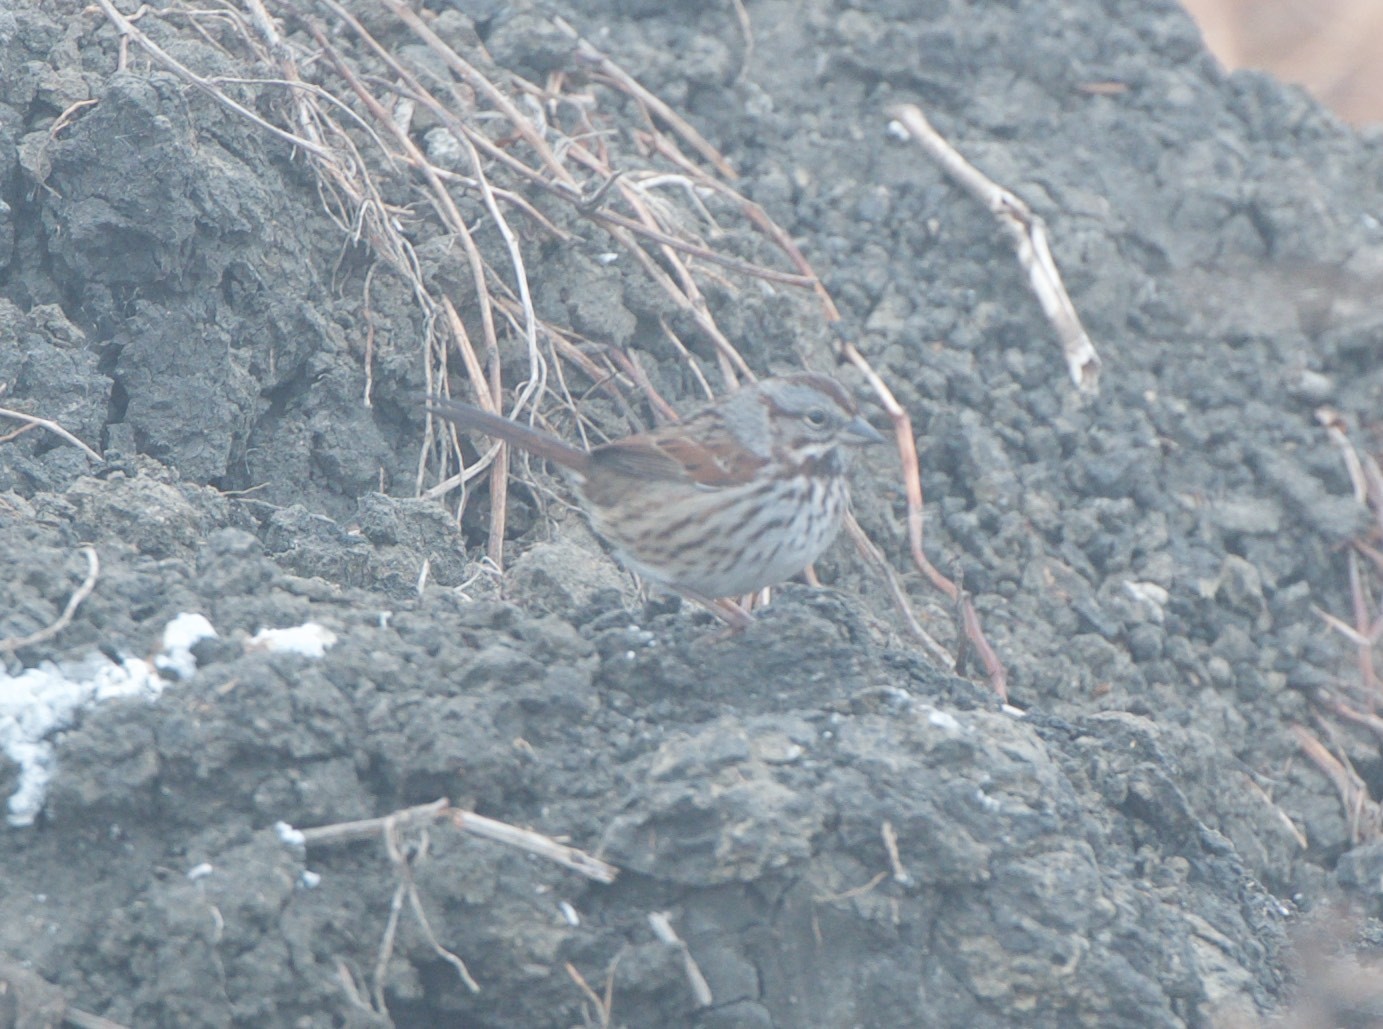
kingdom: Animalia
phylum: Chordata
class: Aves
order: Passeriformes
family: Passerellidae
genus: Melospiza
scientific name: Melospiza melodia
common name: Song sparrow
